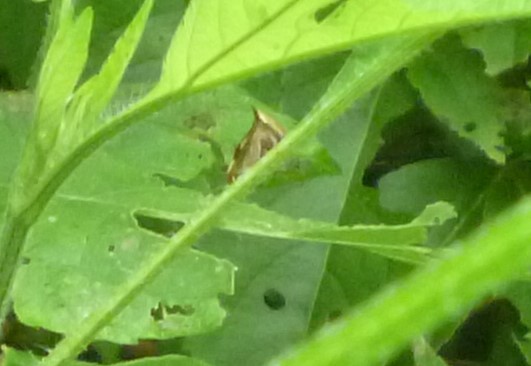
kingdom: Animalia
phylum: Arthropoda
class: Insecta
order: Hemiptera
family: Membracidae
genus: Stictocephala
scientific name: Stictocephala diceros
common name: Two-horned treehopper
